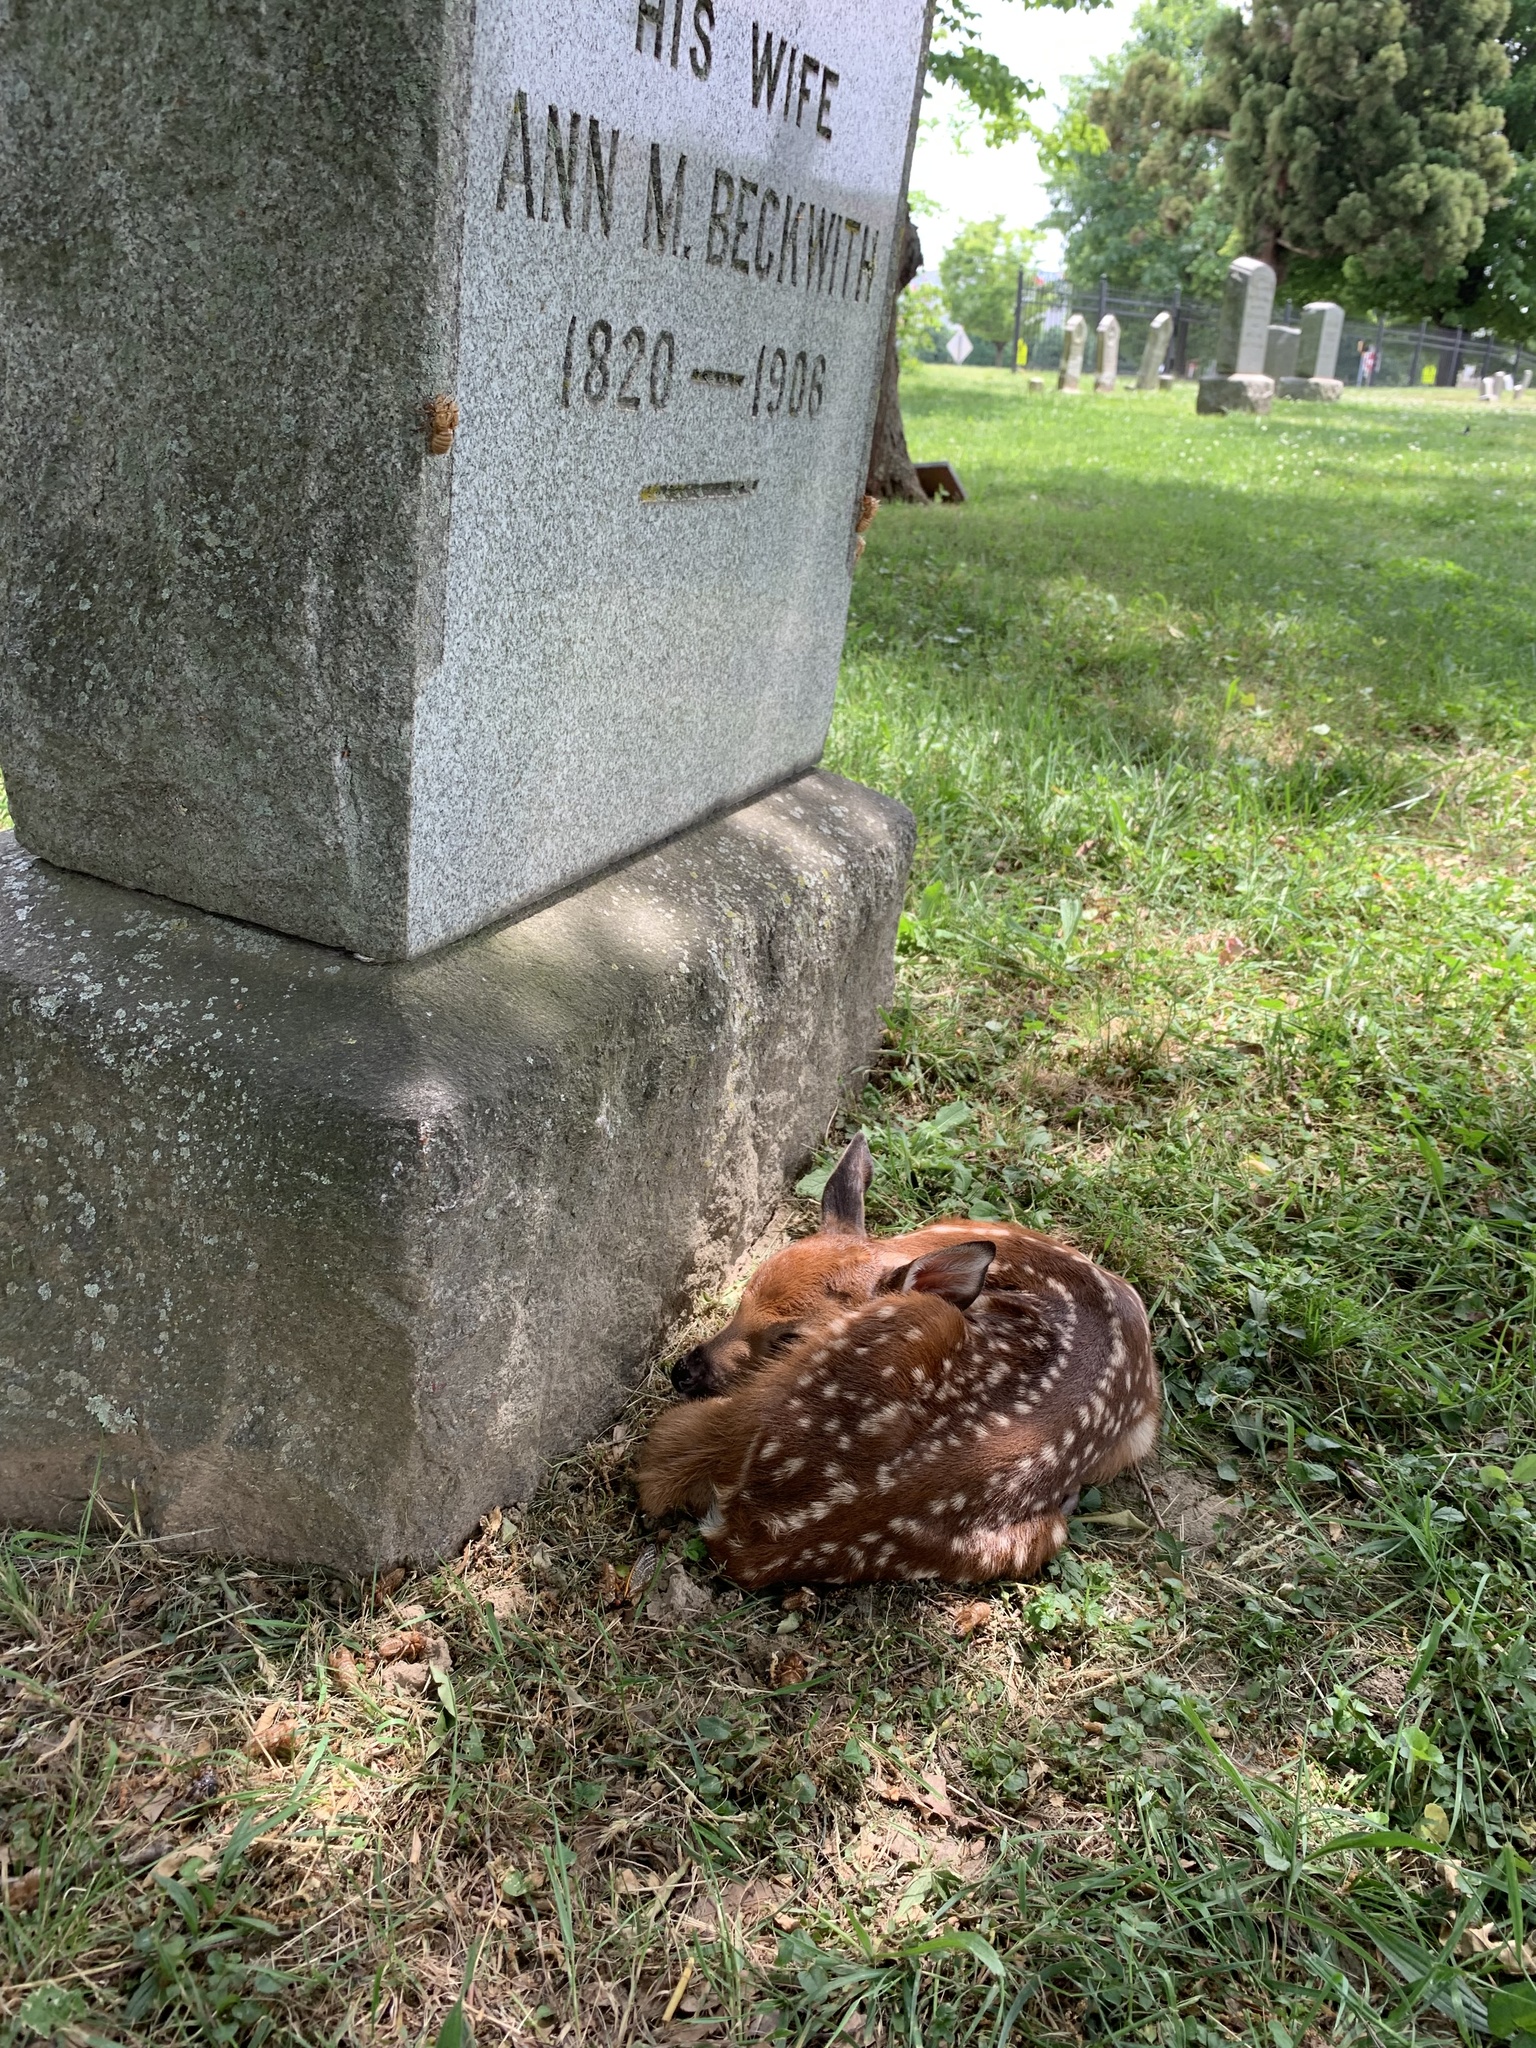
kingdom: Animalia
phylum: Chordata
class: Mammalia
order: Artiodactyla
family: Cervidae
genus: Odocoileus
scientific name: Odocoileus virginianus
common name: White-tailed deer
